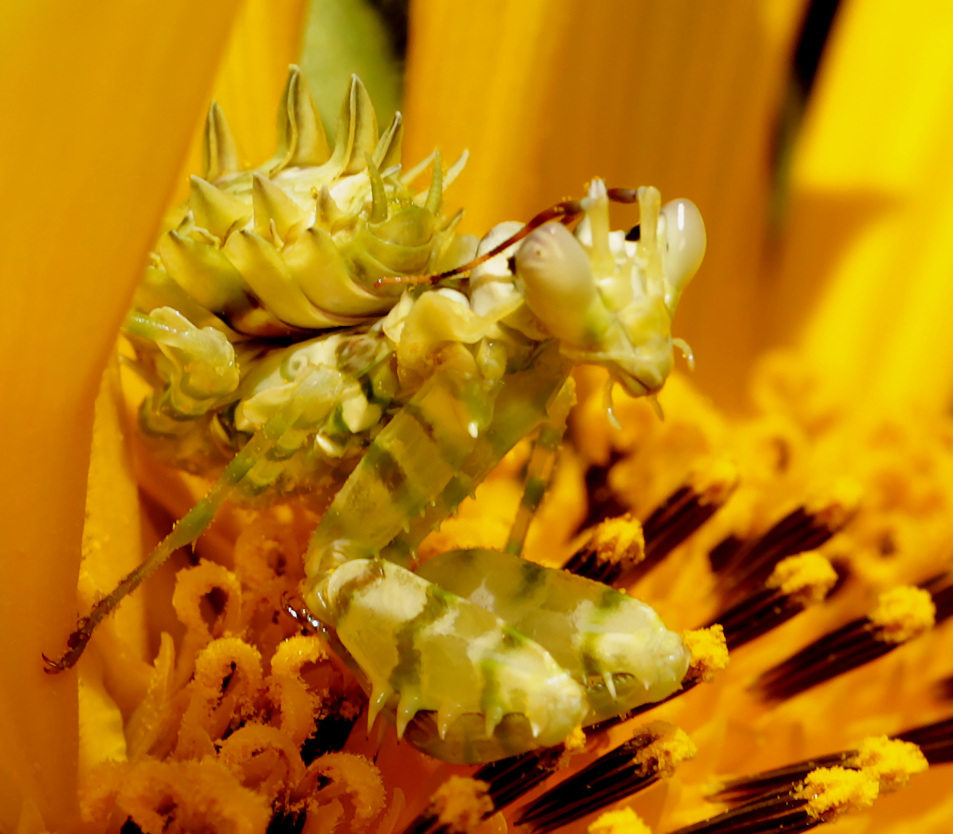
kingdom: Animalia
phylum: Arthropoda
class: Insecta
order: Mantodea
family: Hymenopodidae
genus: Pseudocreobotra
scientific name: Pseudocreobotra wahlbergi
